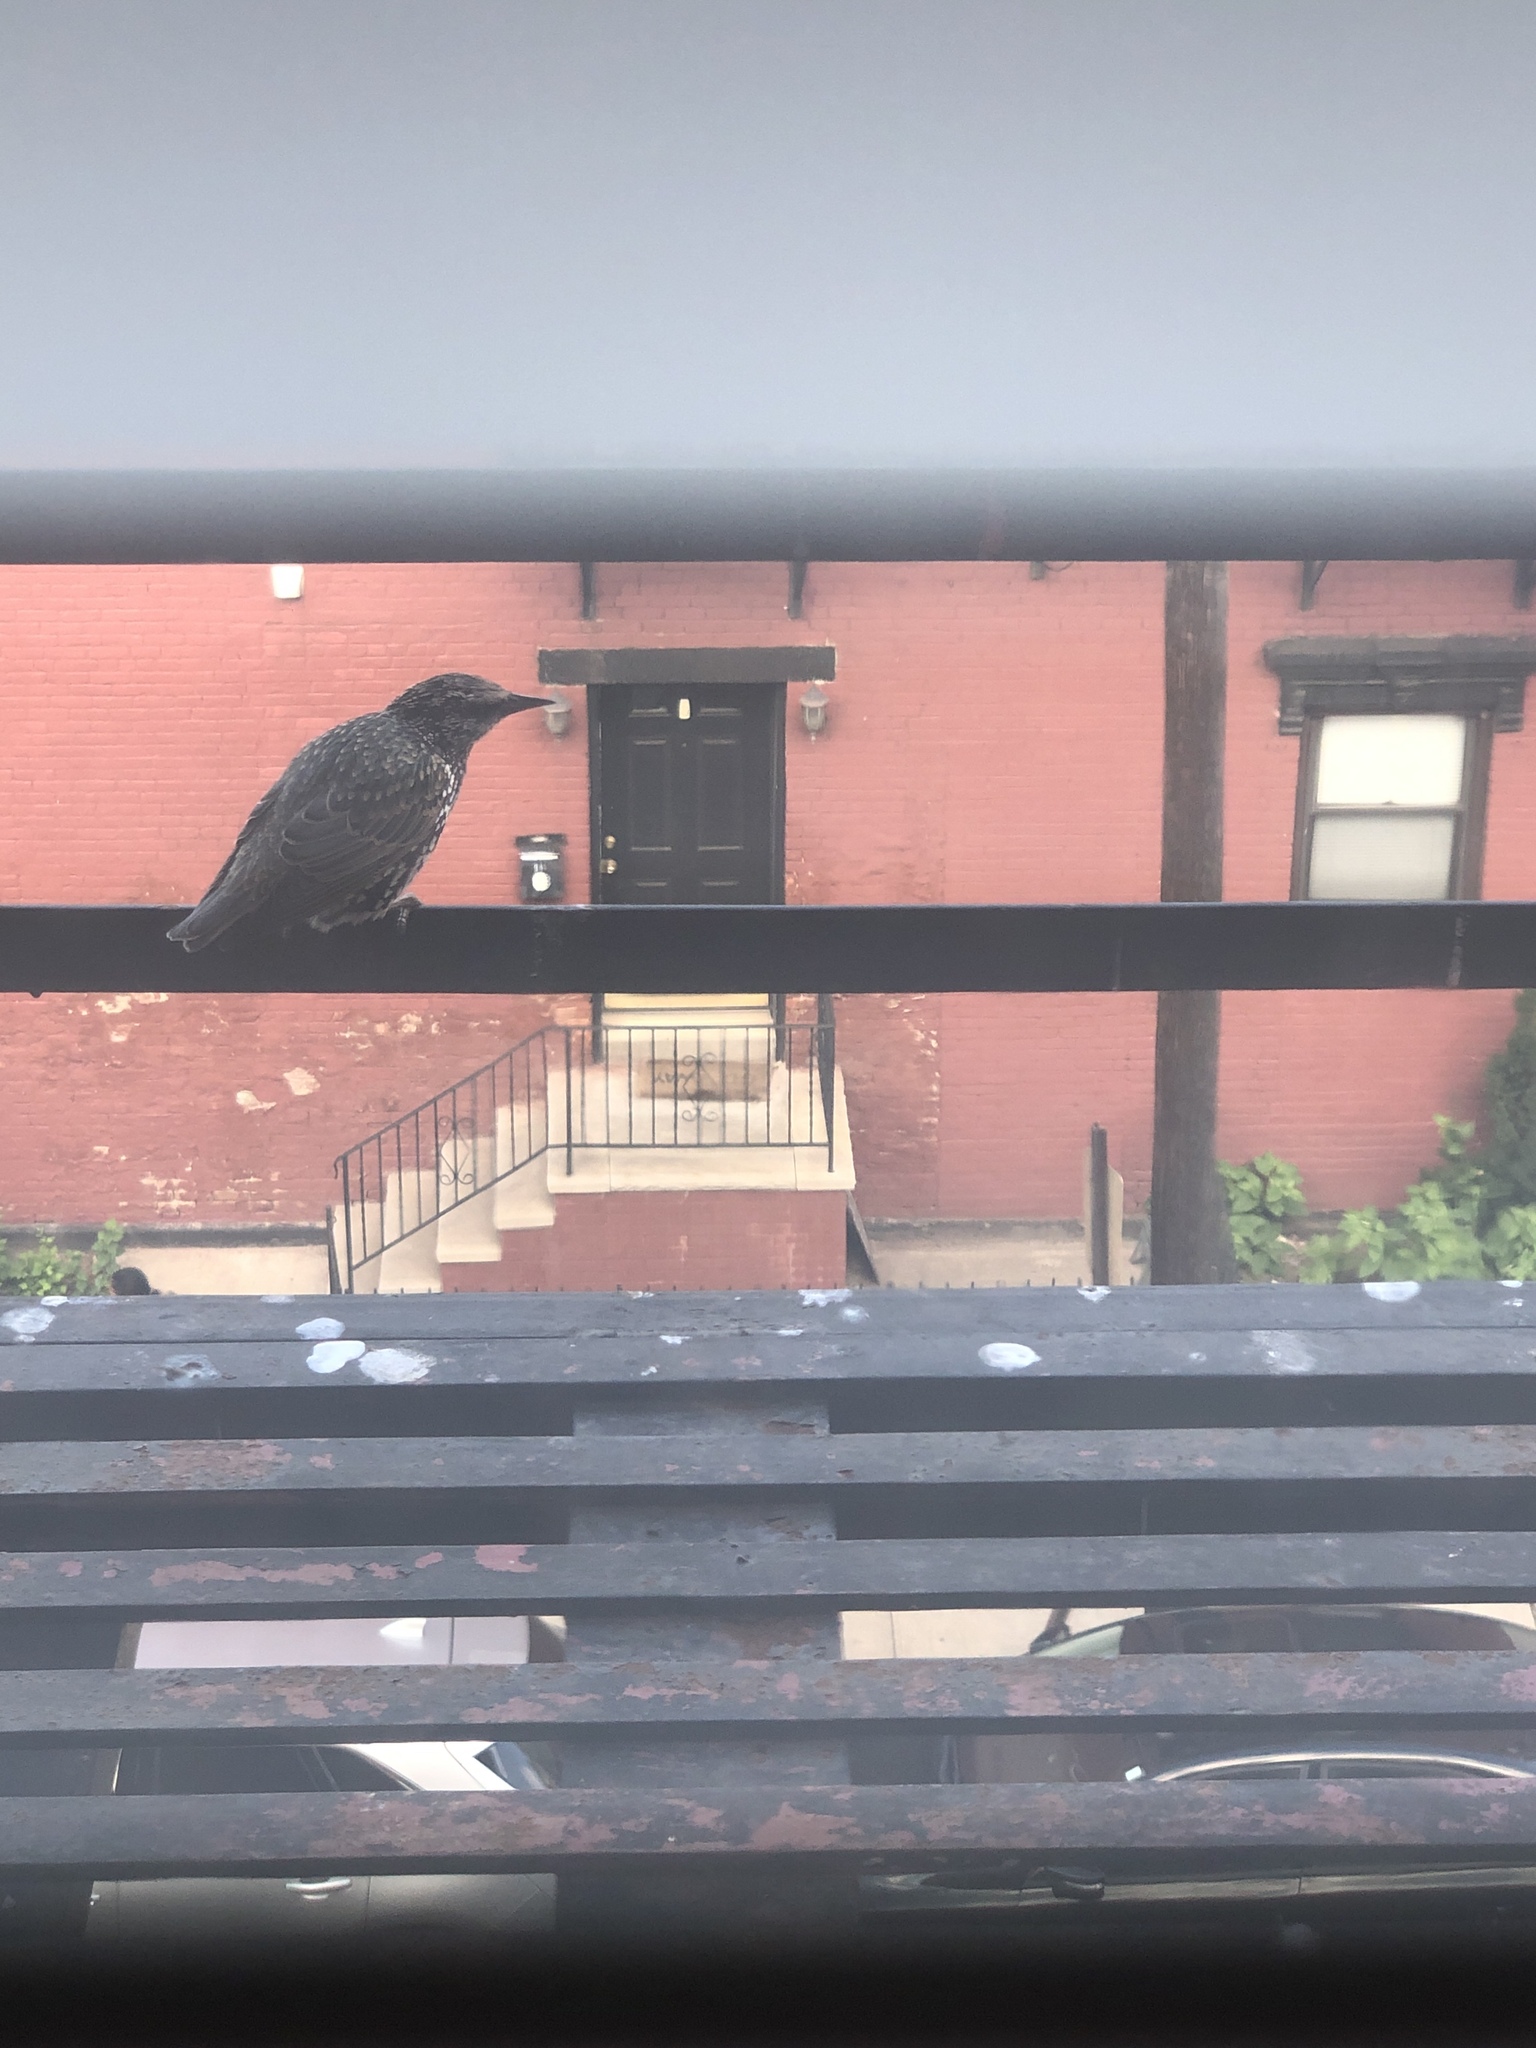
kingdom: Animalia
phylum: Chordata
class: Aves
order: Passeriformes
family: Sturnidae
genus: Sturnus
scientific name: Sturnus vulgaris
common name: Common starling
